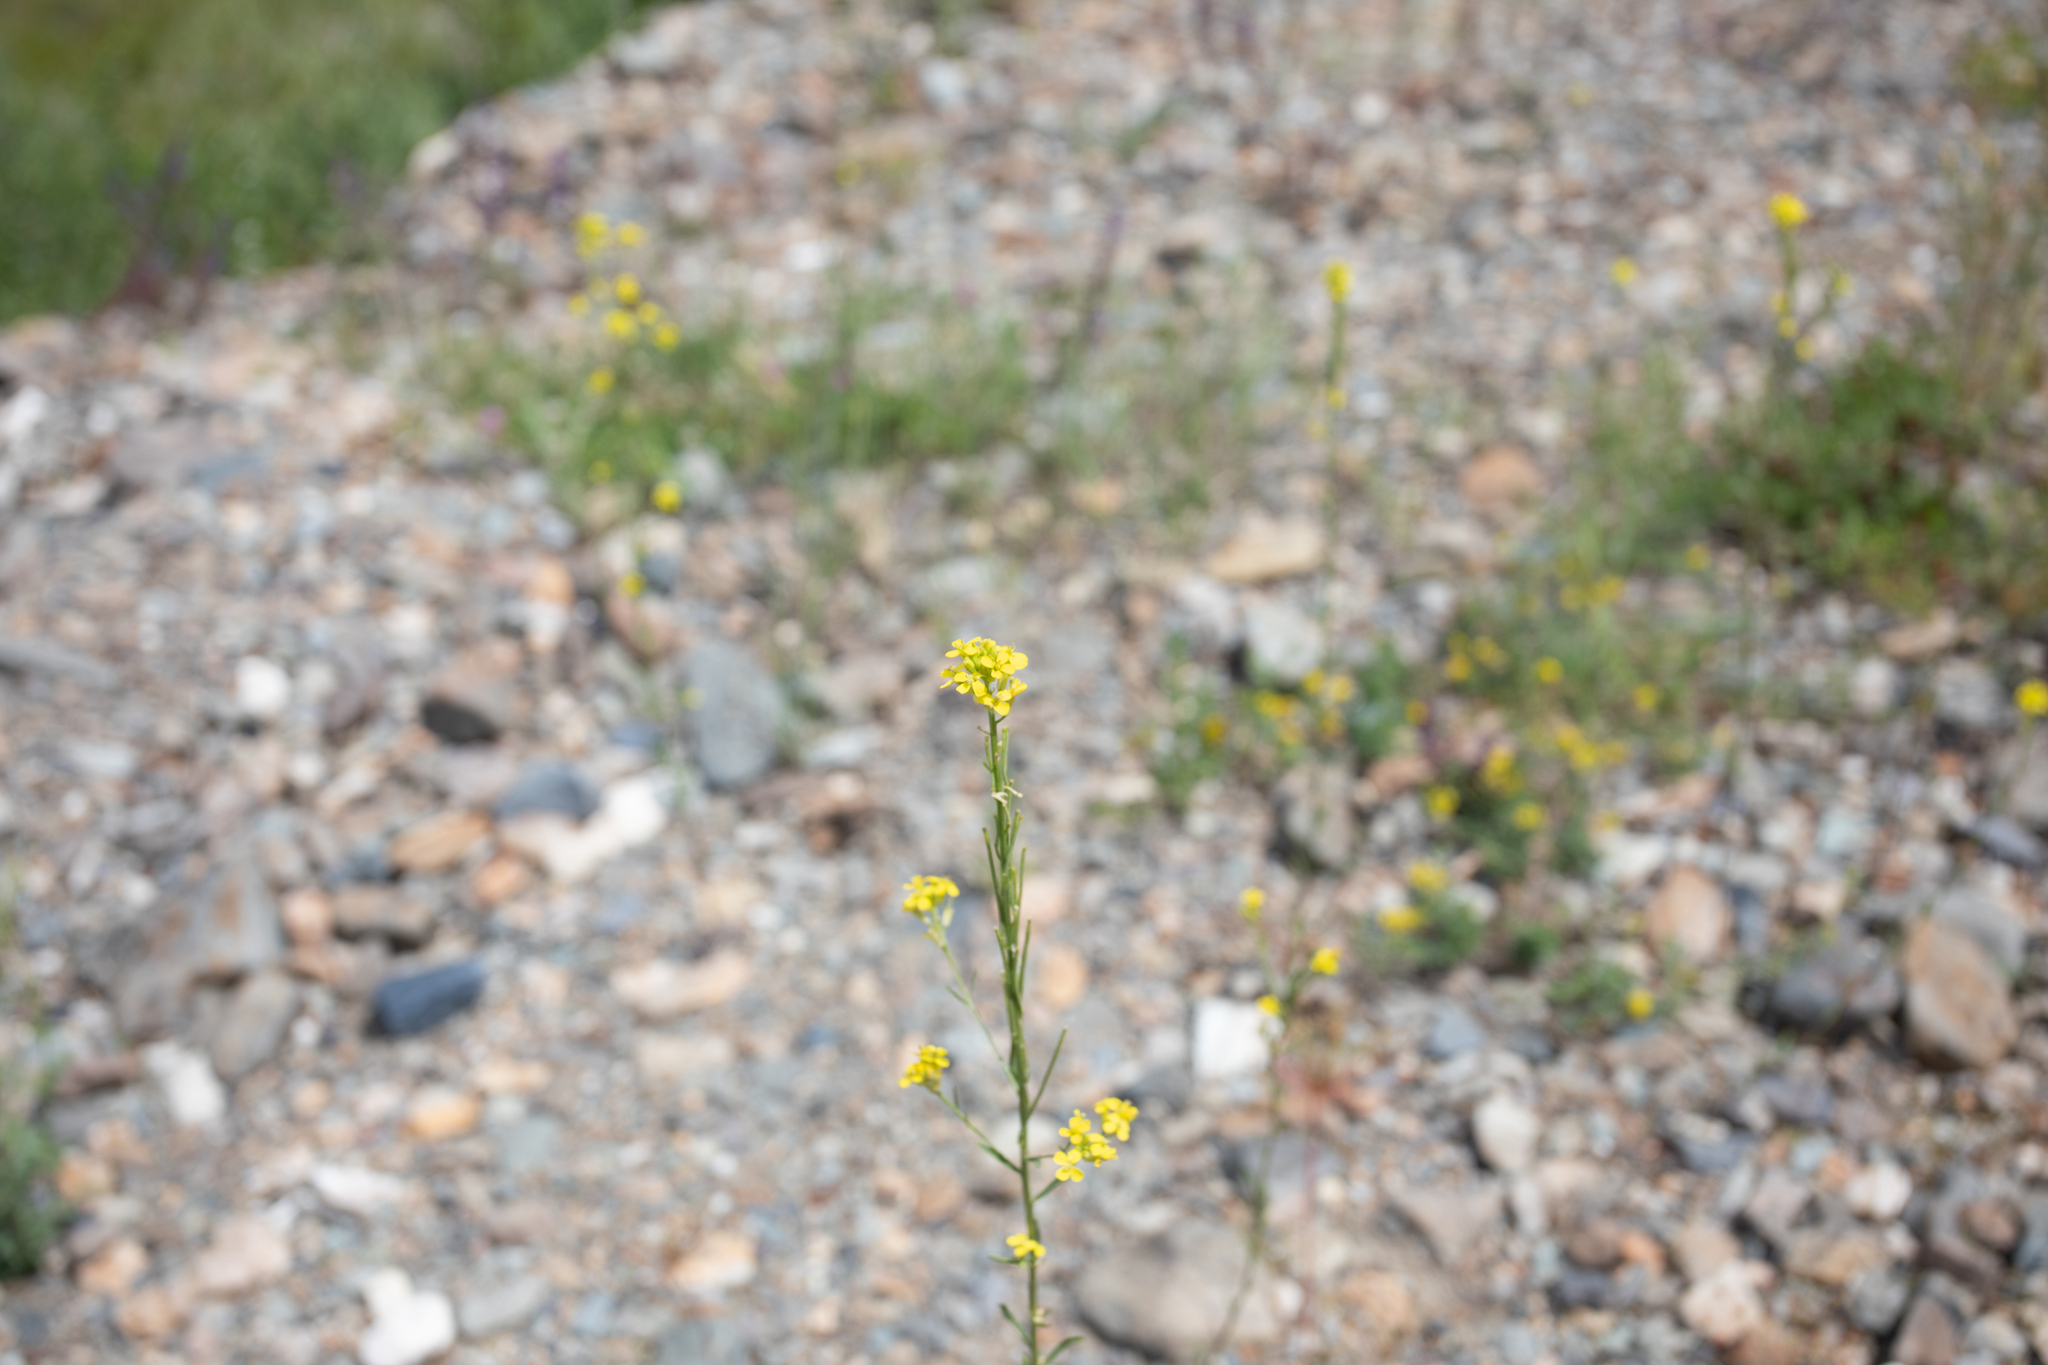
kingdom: Plantae
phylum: Tracheophyta
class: Magnoliopsida
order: Brassicales
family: Brassicaceae
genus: Erysimum
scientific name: Erysimum hieraciifolium
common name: European wallflower
